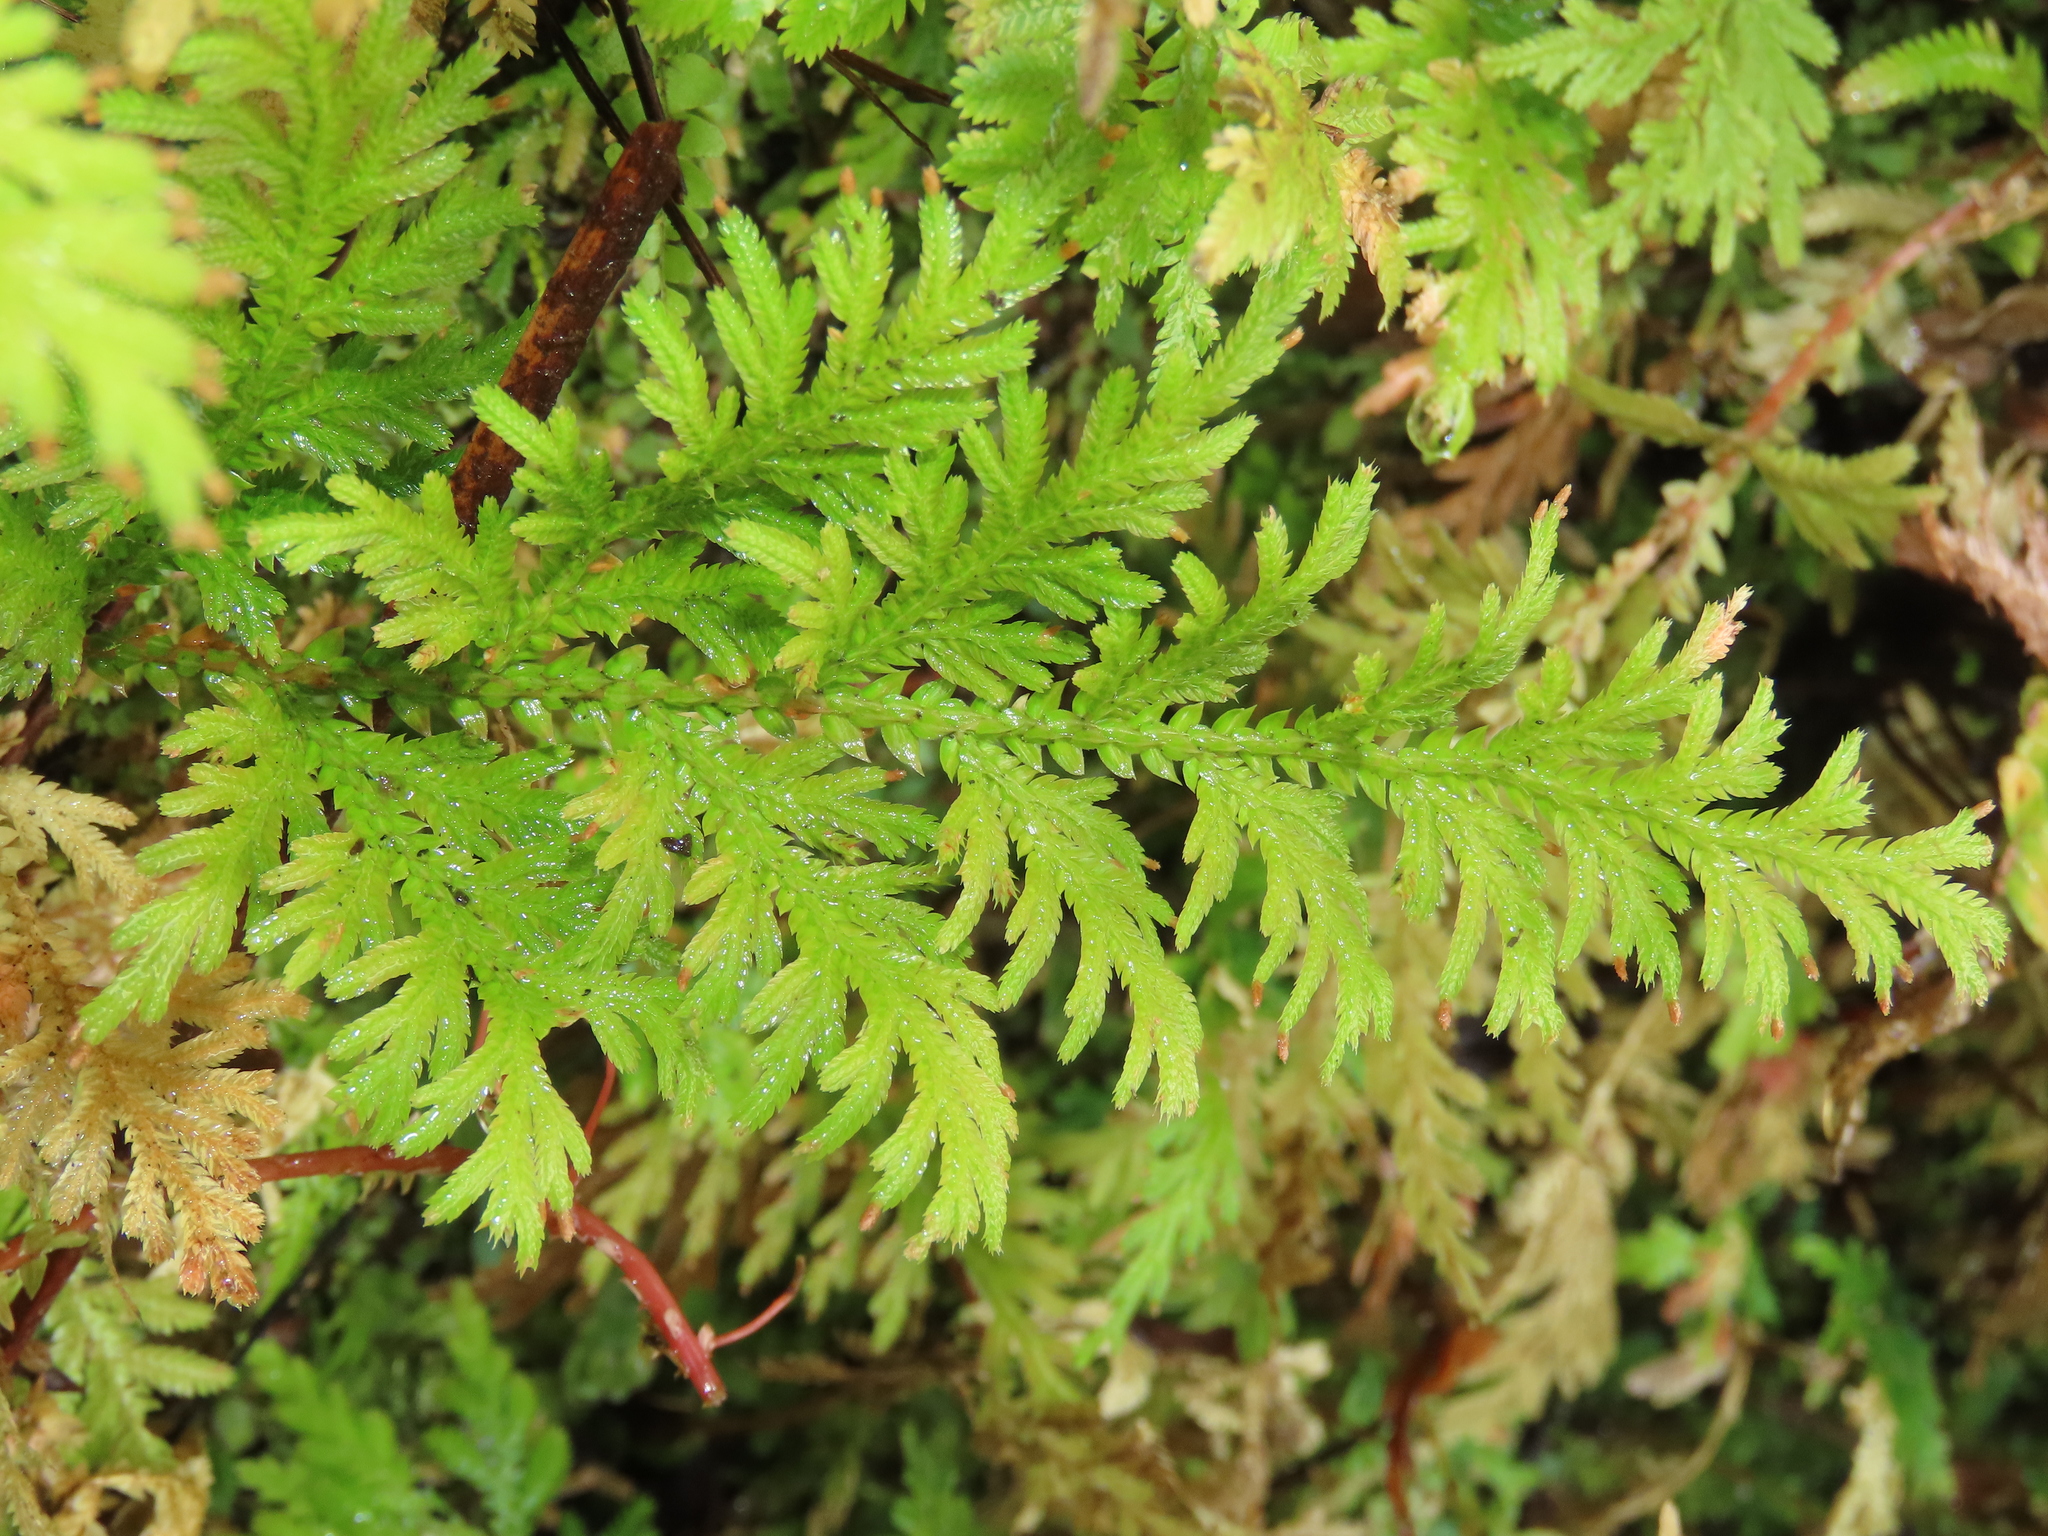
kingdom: Plantae
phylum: Tracheophyta
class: Lycopodiopsida
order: Selaginellales
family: Selaginellaceae
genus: Selaginella
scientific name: Selaginella moellendorffii
